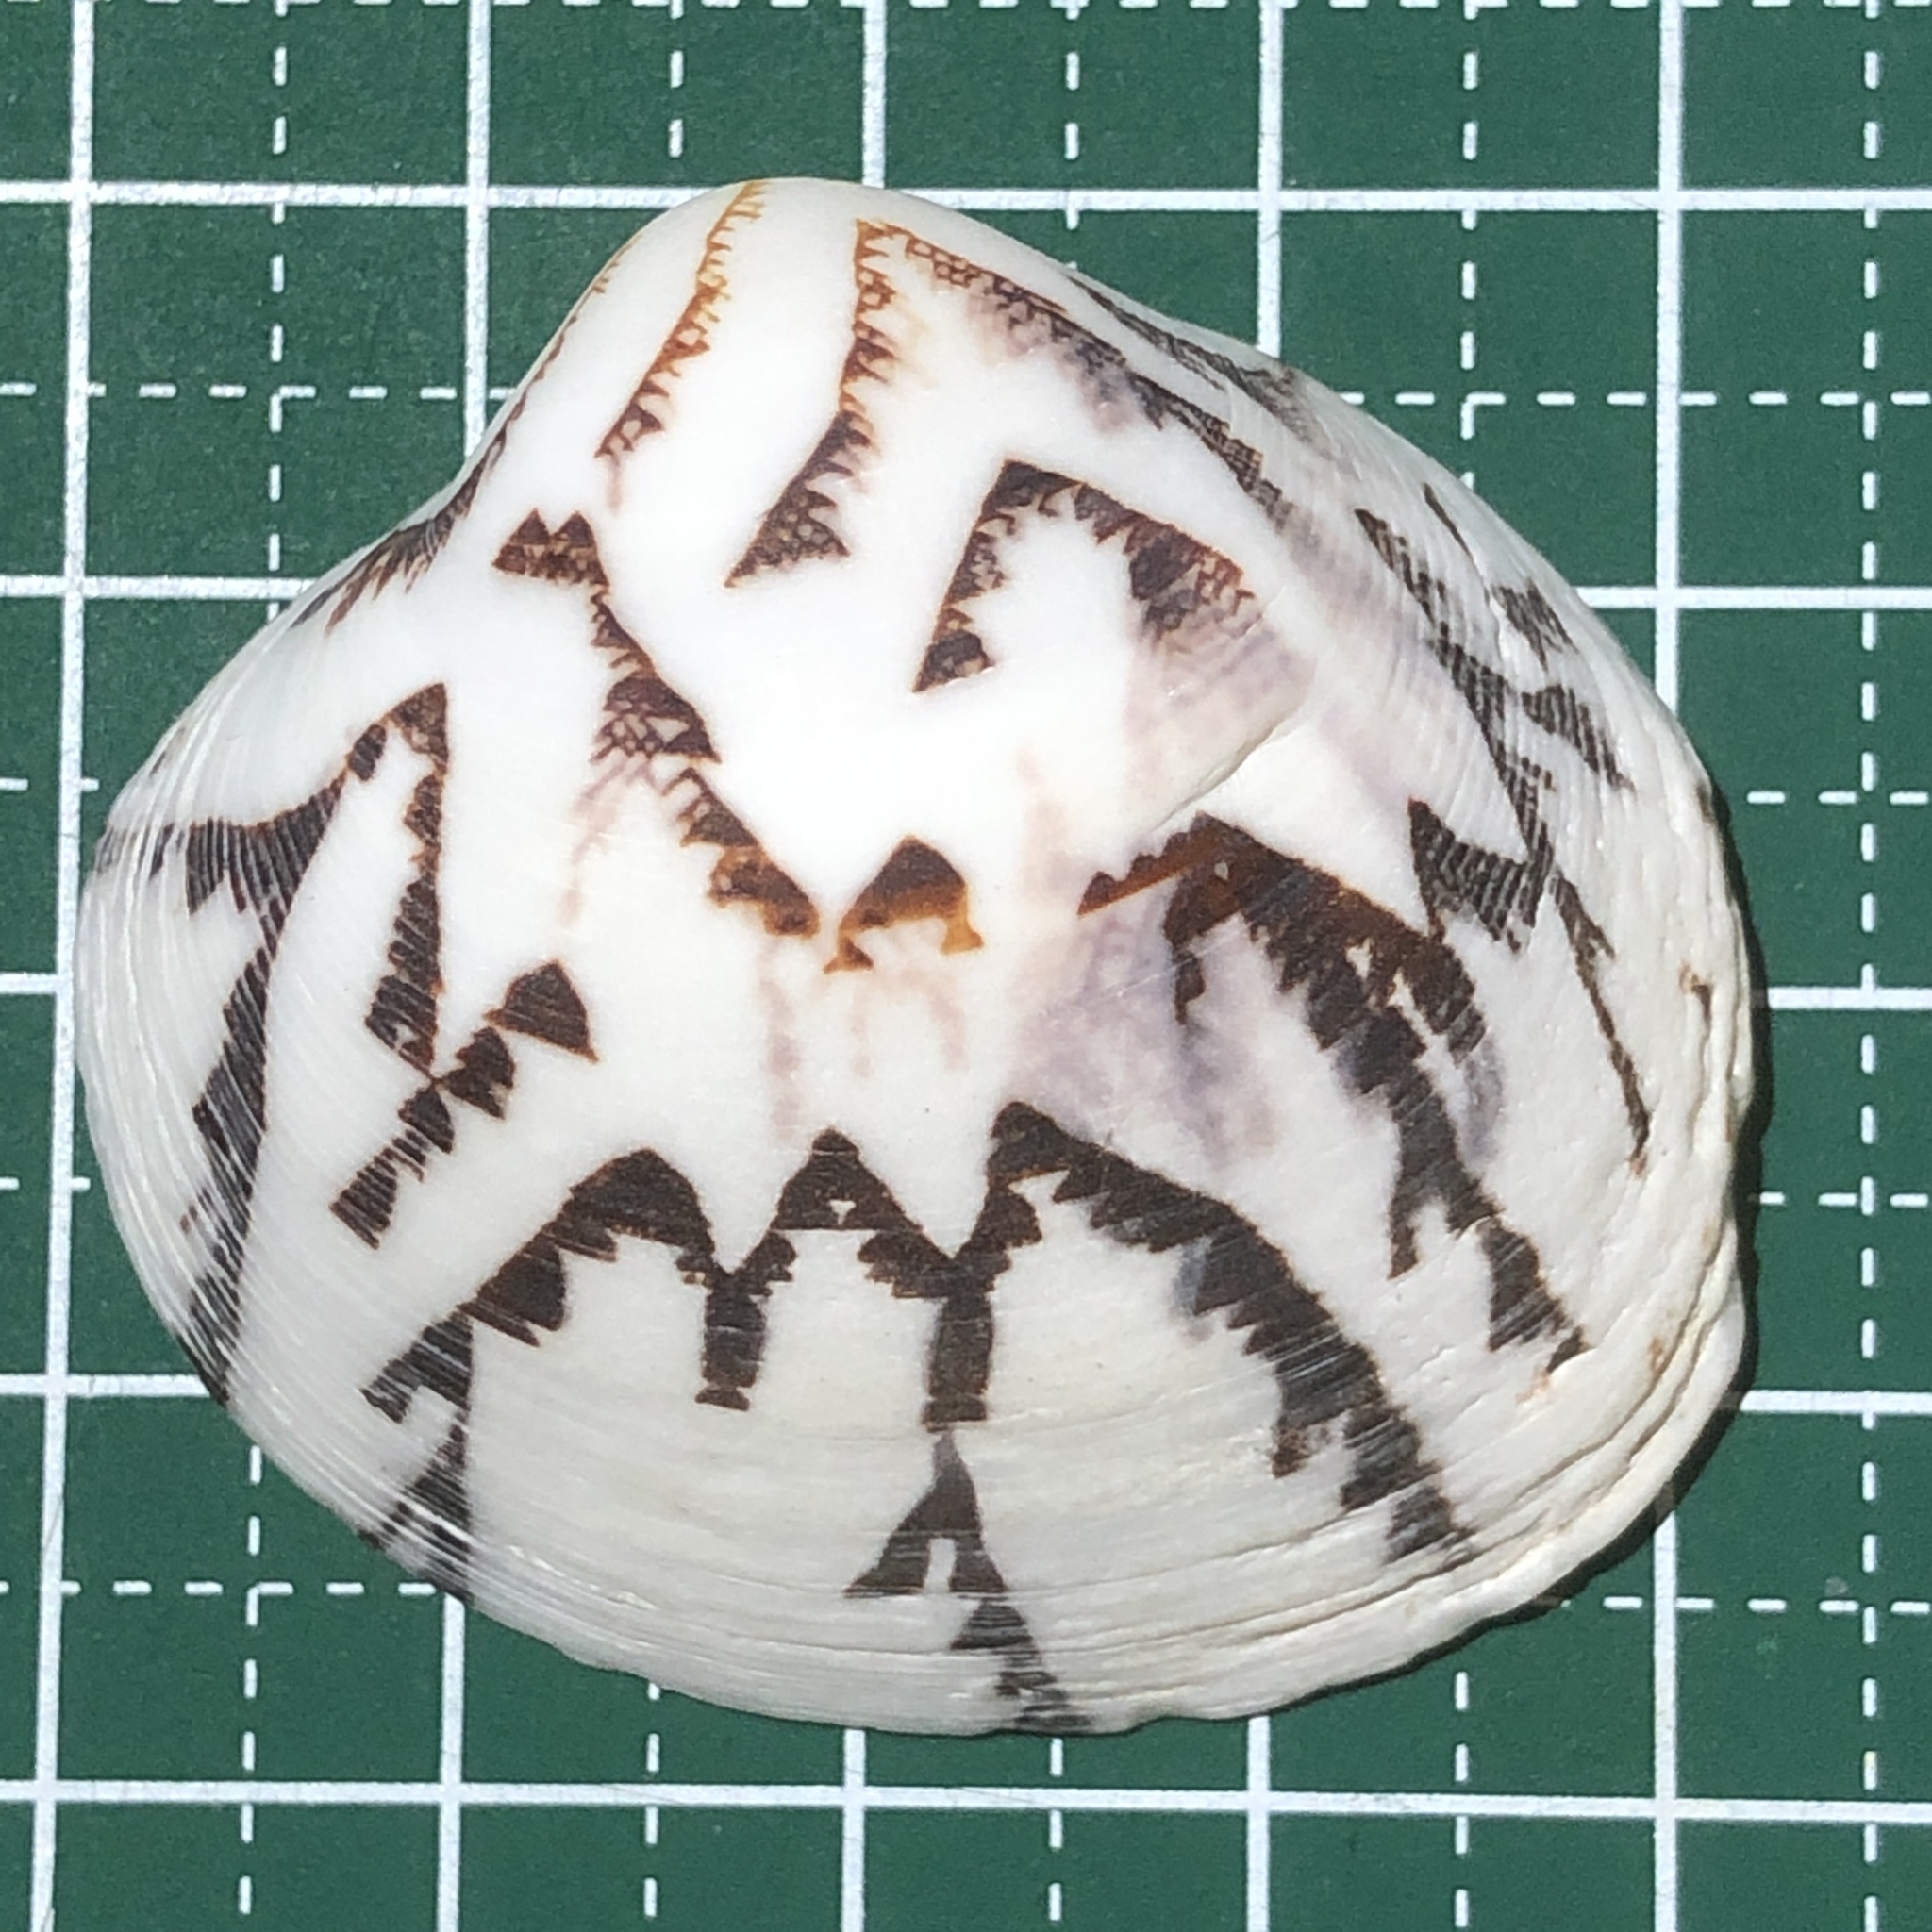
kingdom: Animalia
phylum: Mollusca
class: Bivalvia
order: Venerida
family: Veneridae
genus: Lioconcha
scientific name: Lioconcha castrensis
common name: Camp pitar-venus
